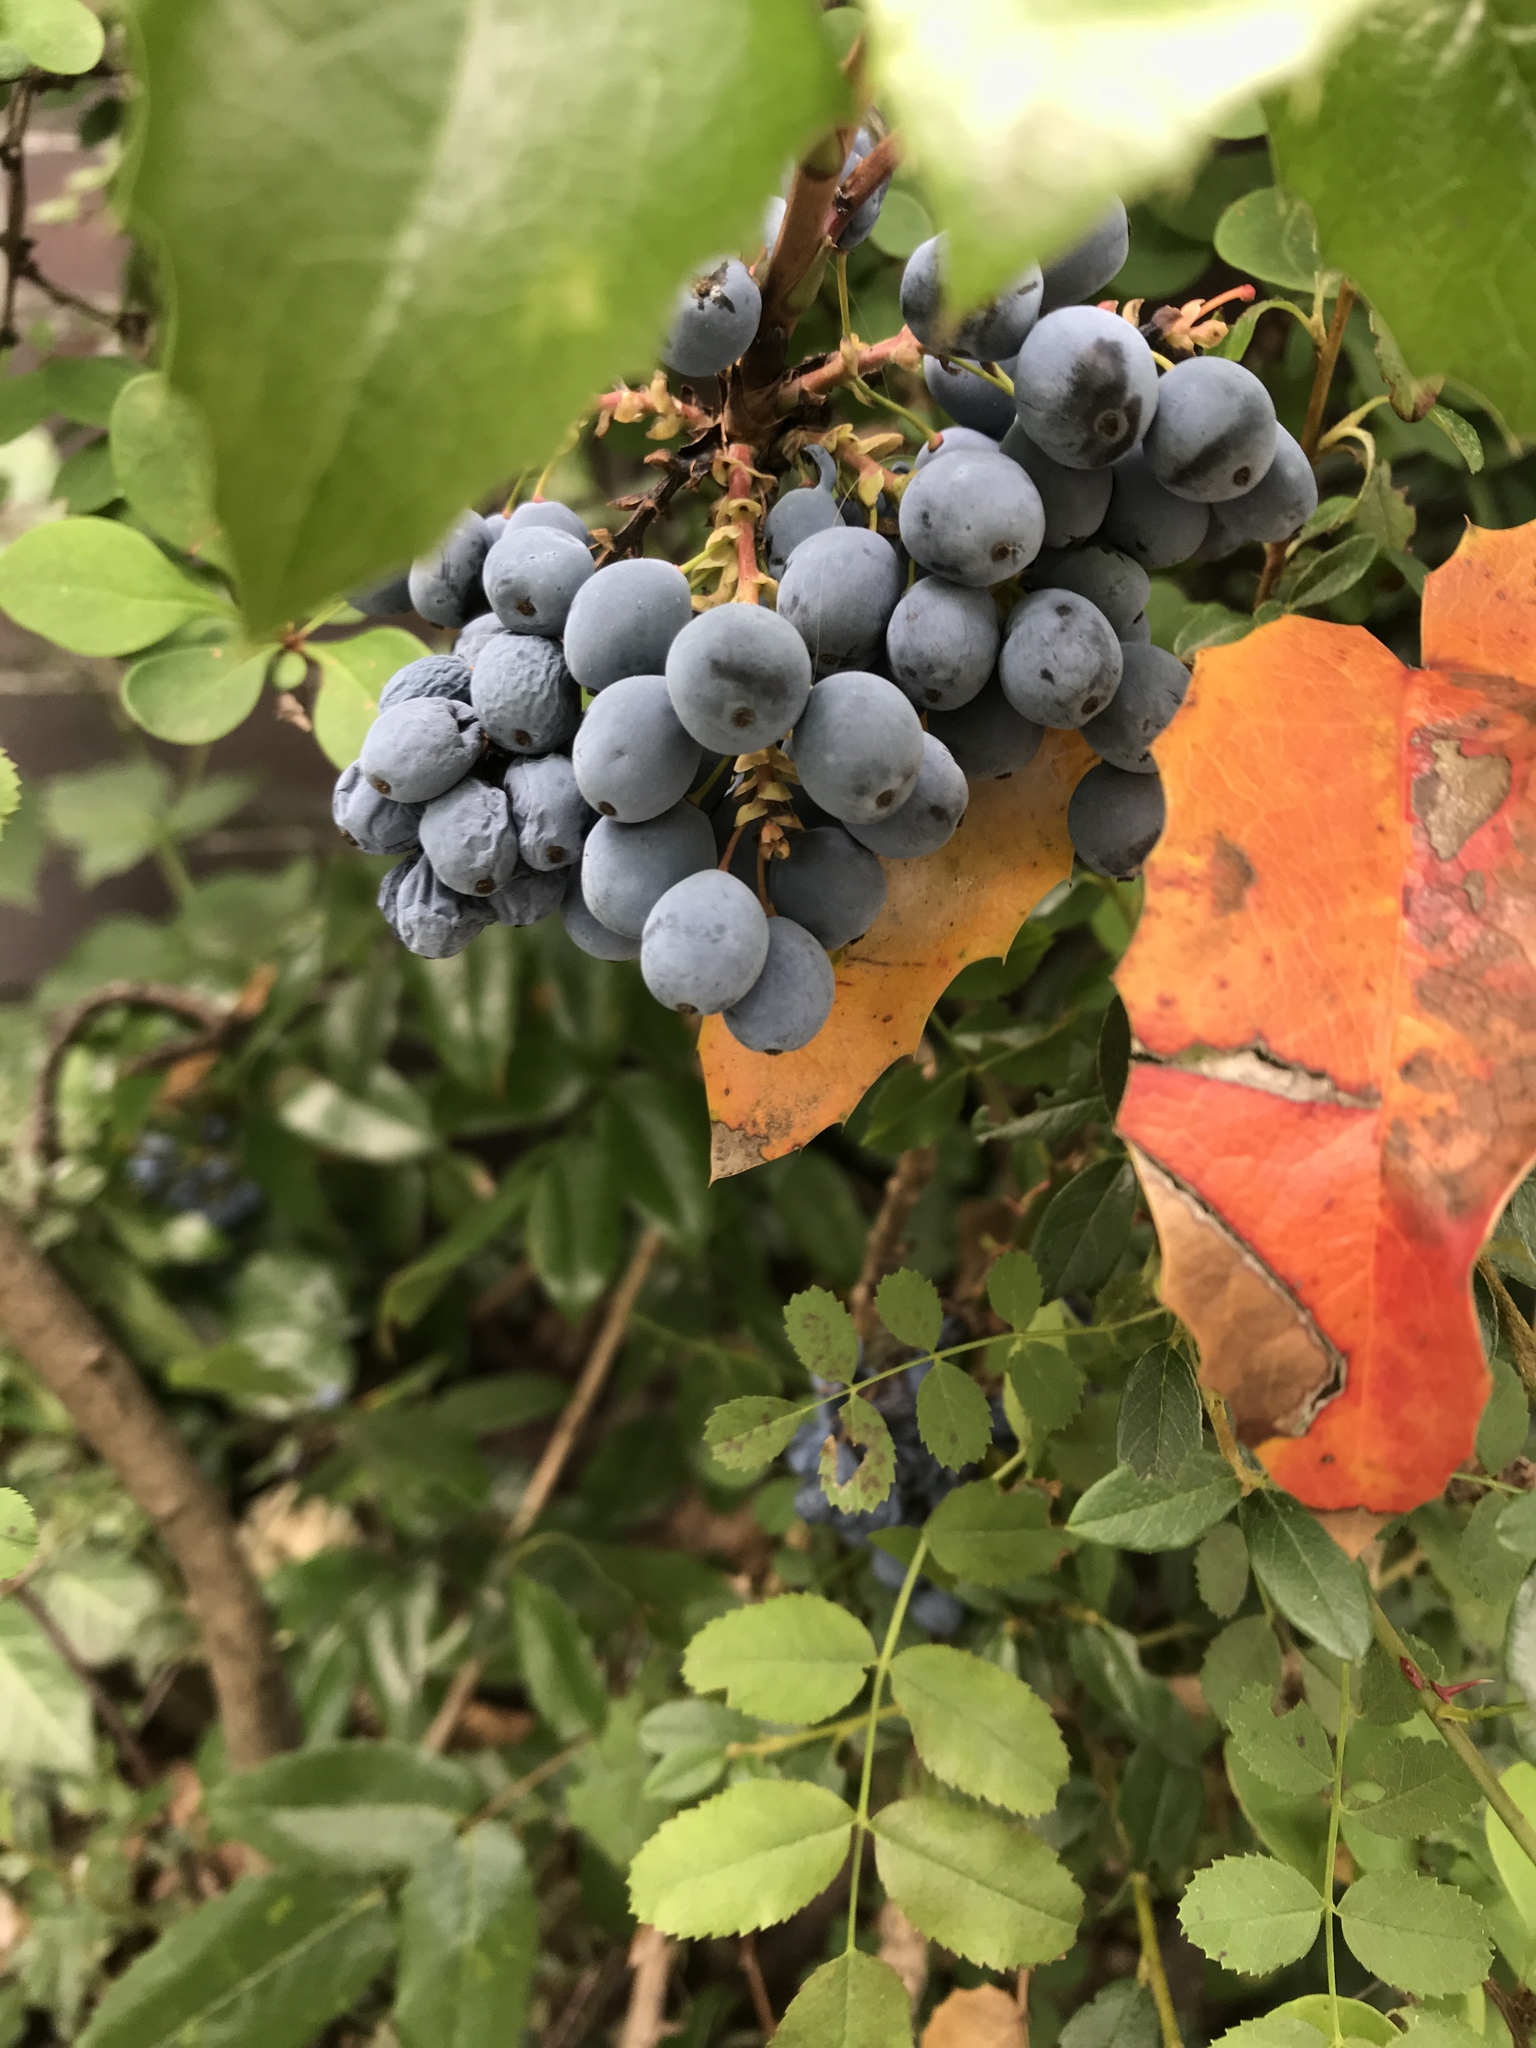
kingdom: Plantae
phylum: Tracheophyta
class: Magnoliopsida
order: Ranunculales
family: Berberidaceae
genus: Mahonia
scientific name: Mahonia aquifolium
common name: Oregon-grape
